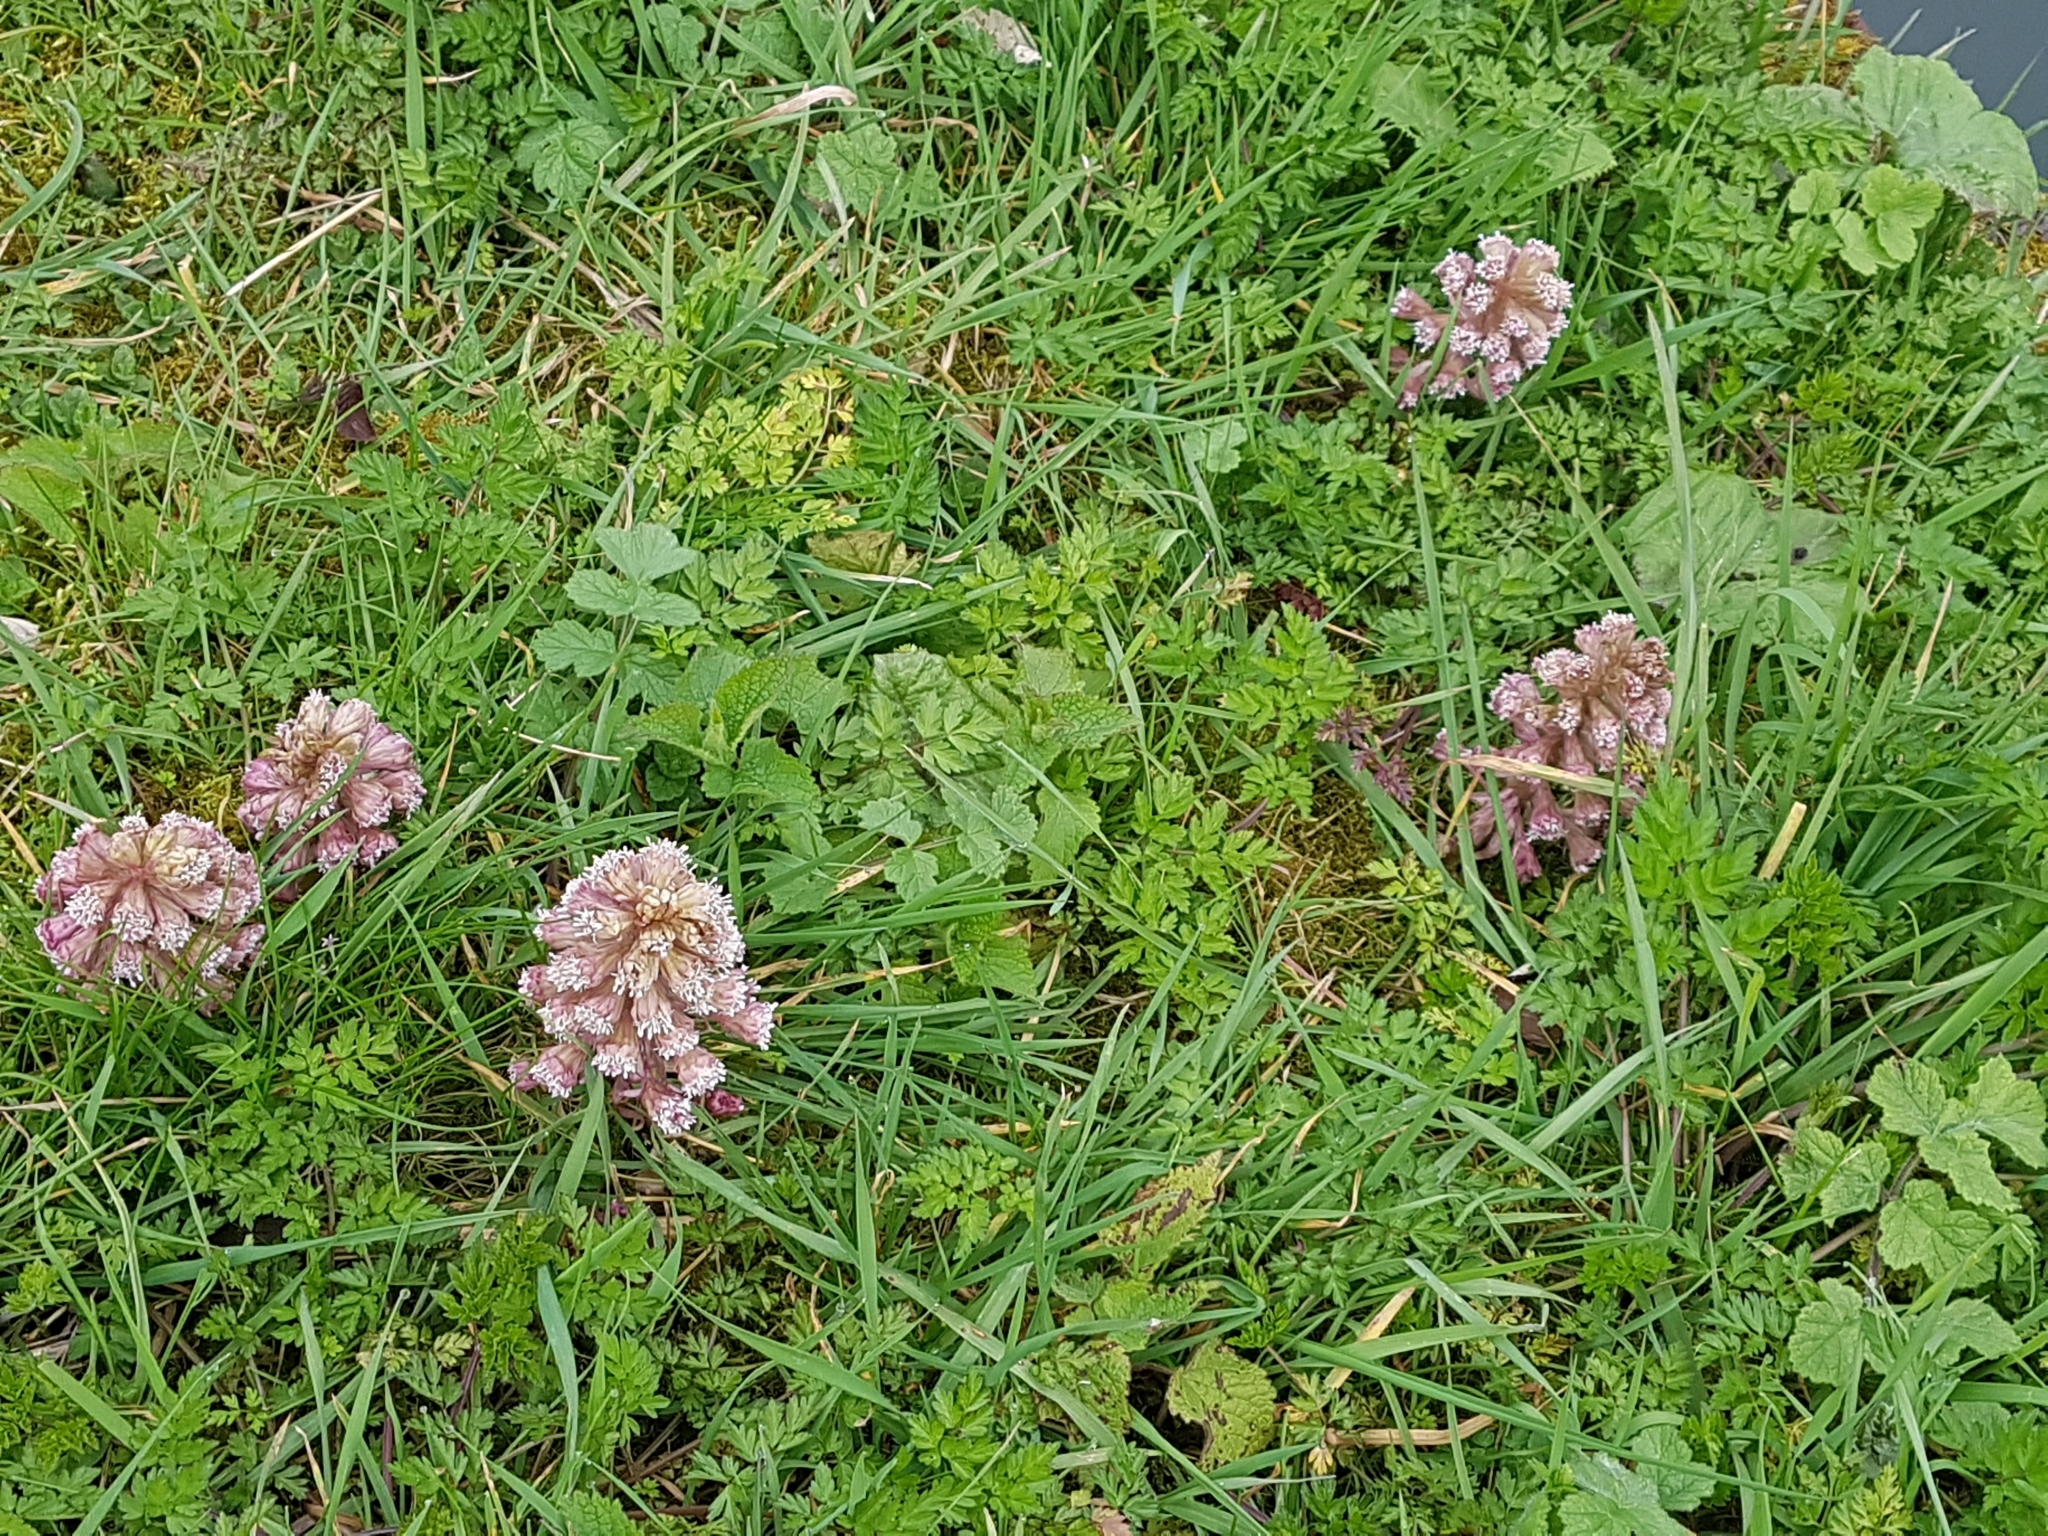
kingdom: Plantae
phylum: Tracheophyta
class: Magnoliopsida
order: Asterales
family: Asteraceae
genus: Petasites
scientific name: Petasites hybridus
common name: Butterbur
